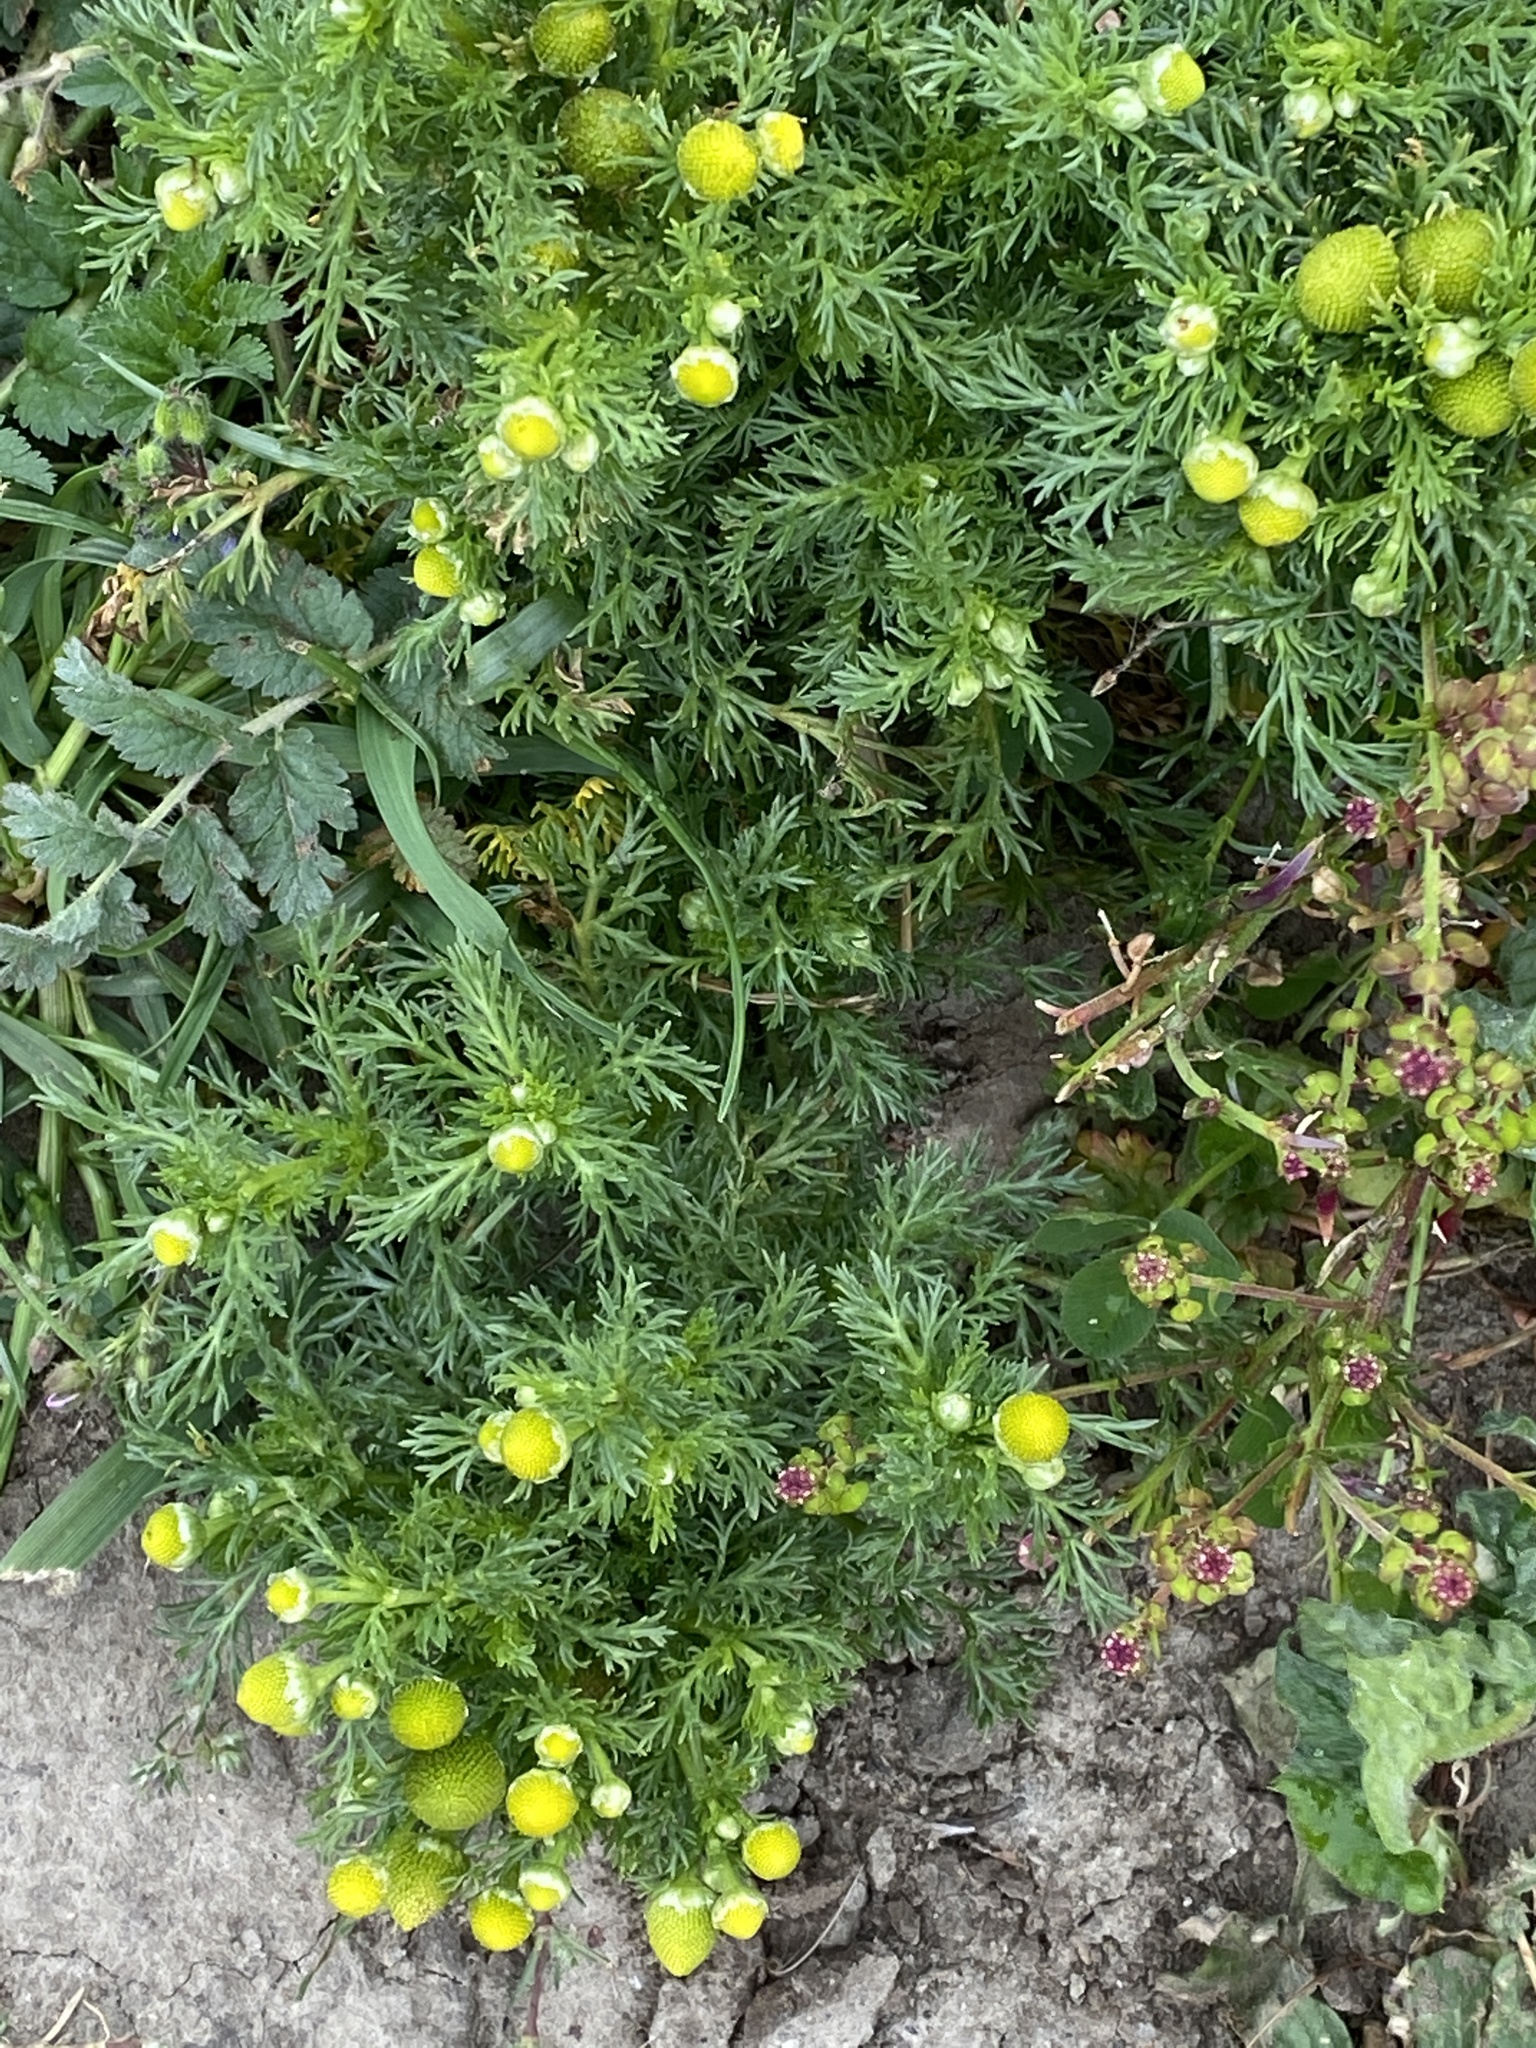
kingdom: Plantae
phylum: Tracheophyta
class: Magnoliopsida
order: Asterales
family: Asteraceae
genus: Matricaria
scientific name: Matricaria discoidea
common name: Disc mayweed
